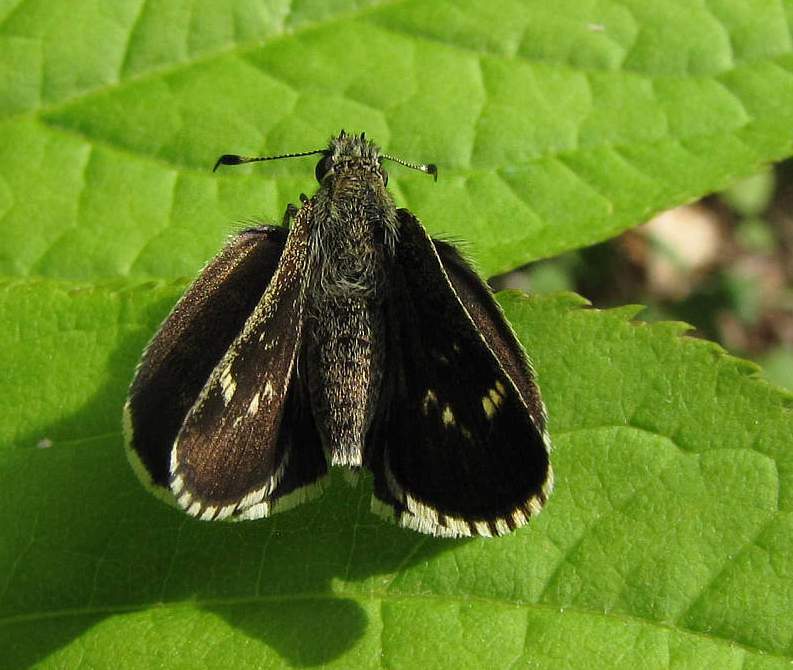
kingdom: Animalia
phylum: Arthropoda
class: Insecta
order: Lepidoptera
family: Hesperiidae
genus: Mastor
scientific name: Mastor hegon
